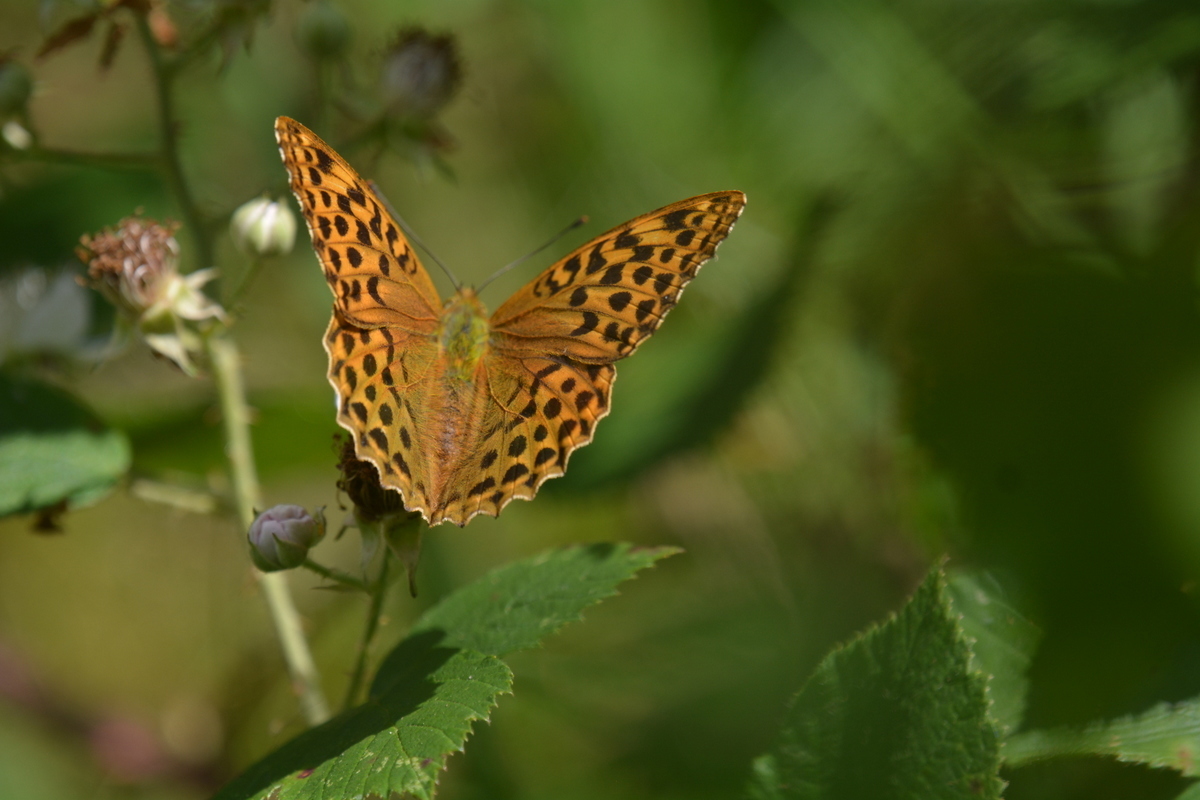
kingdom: Animalia
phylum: Arthropoda
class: Insecta
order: Lepidoptera
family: Nymphalidae
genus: Argynnis
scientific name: Argynnis paphia
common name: Silver-washed fritillary
